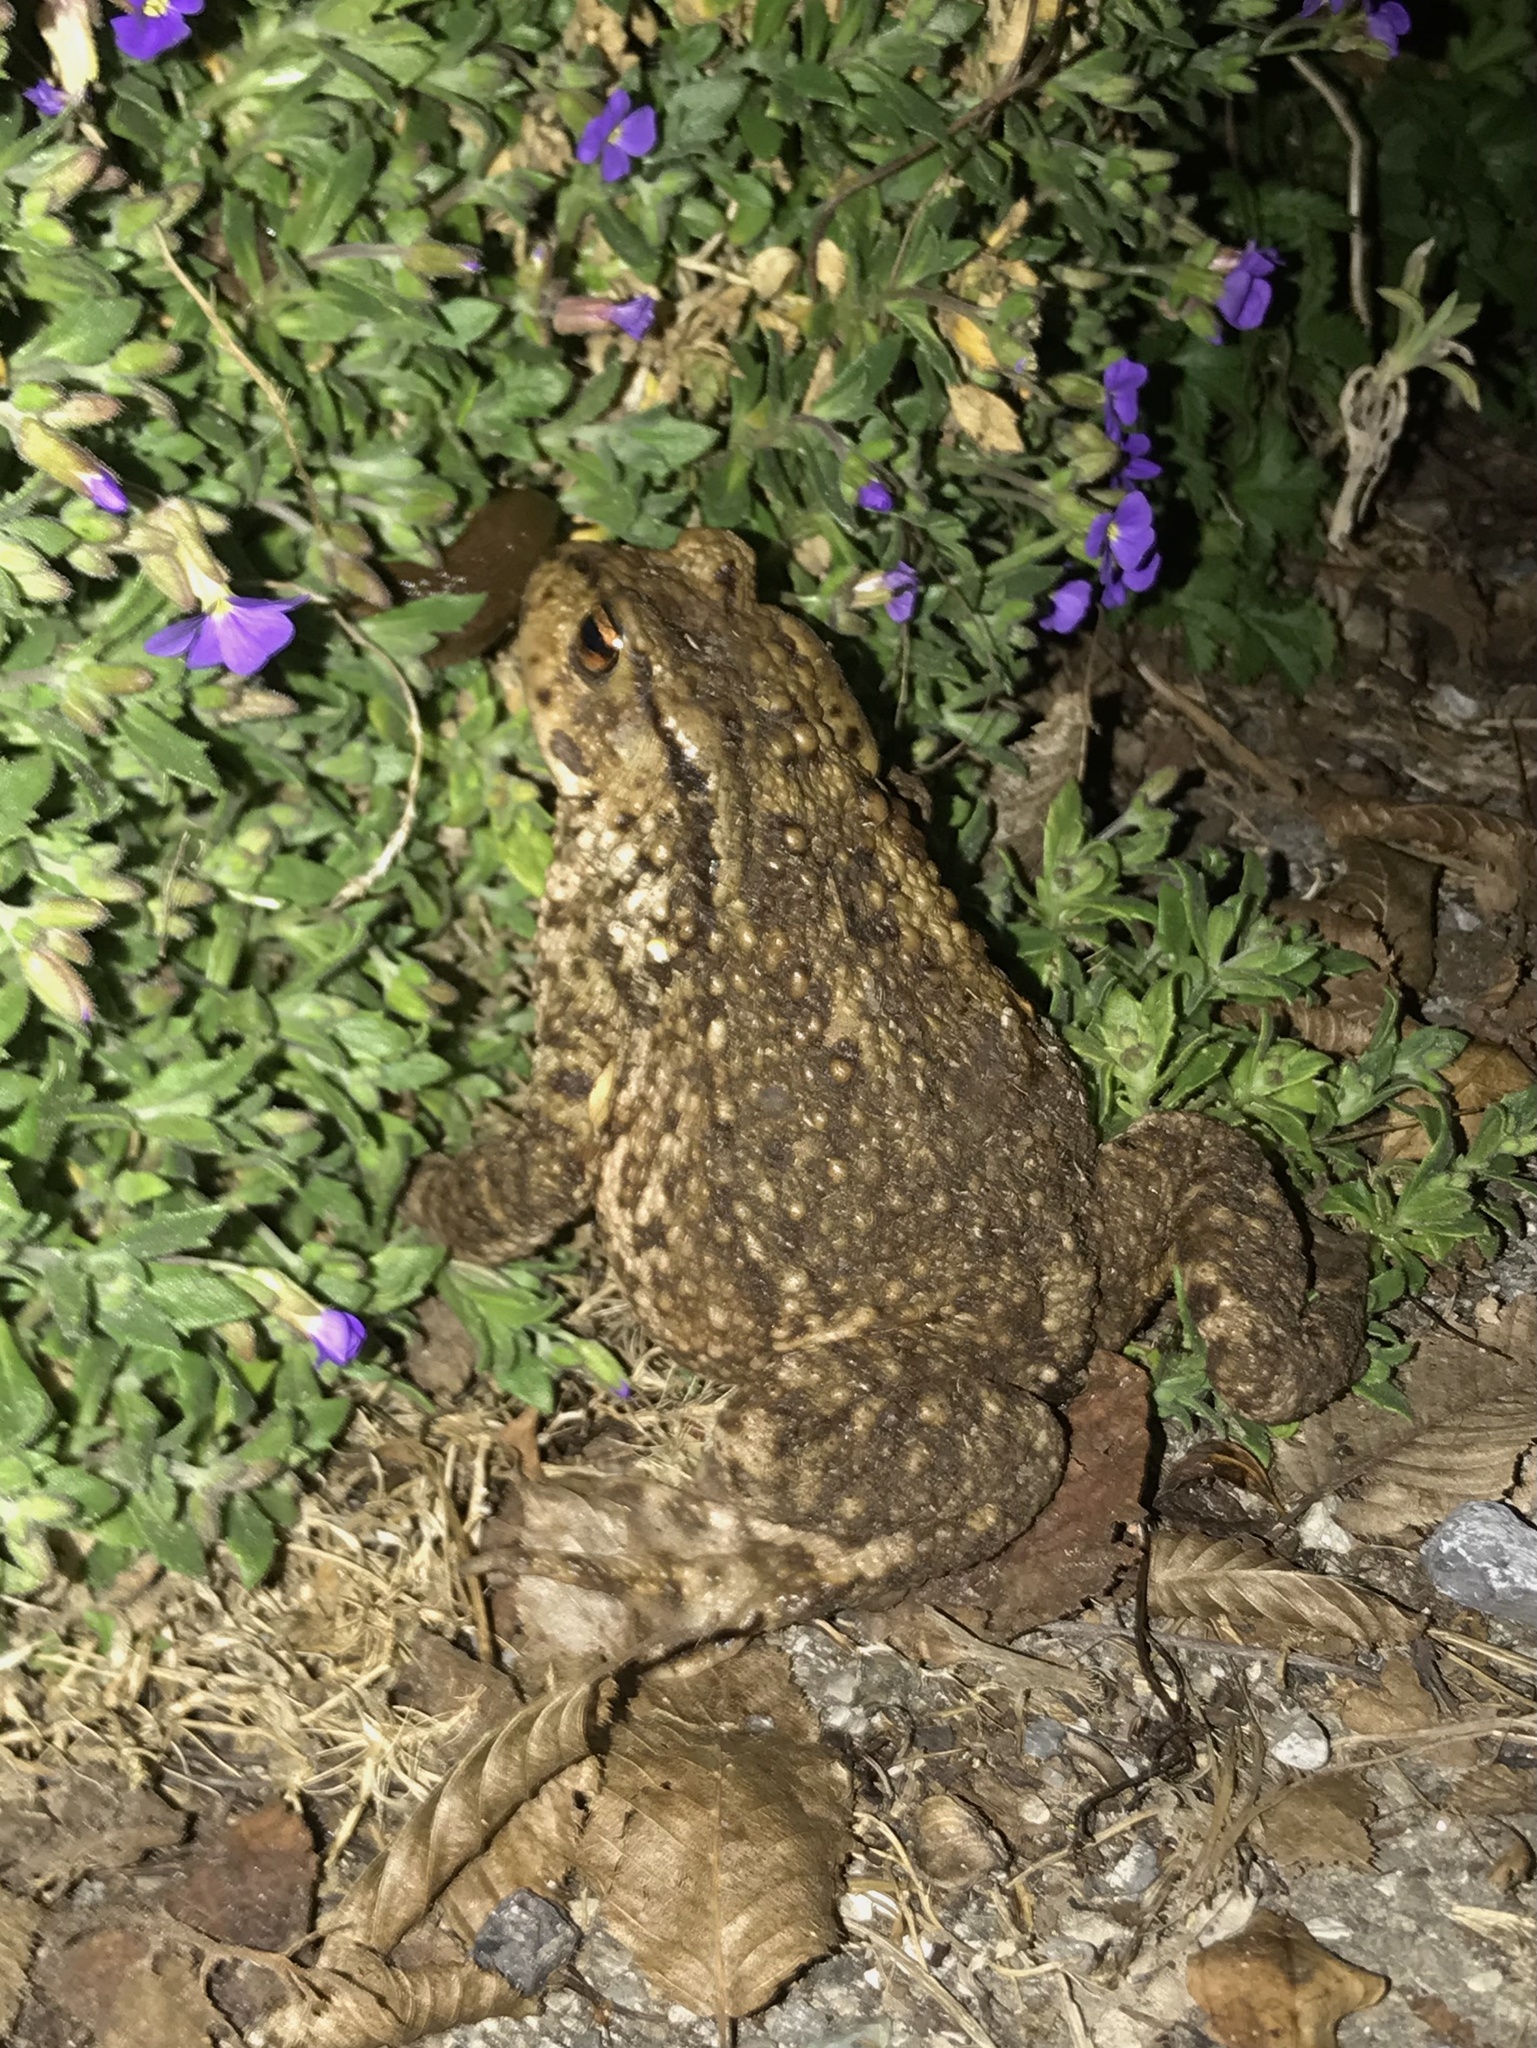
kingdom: Animalia
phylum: Chordata
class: Amphibia
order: Anura
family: Bufonidae
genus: Bufo
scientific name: Bufo bufo
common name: Common toad
